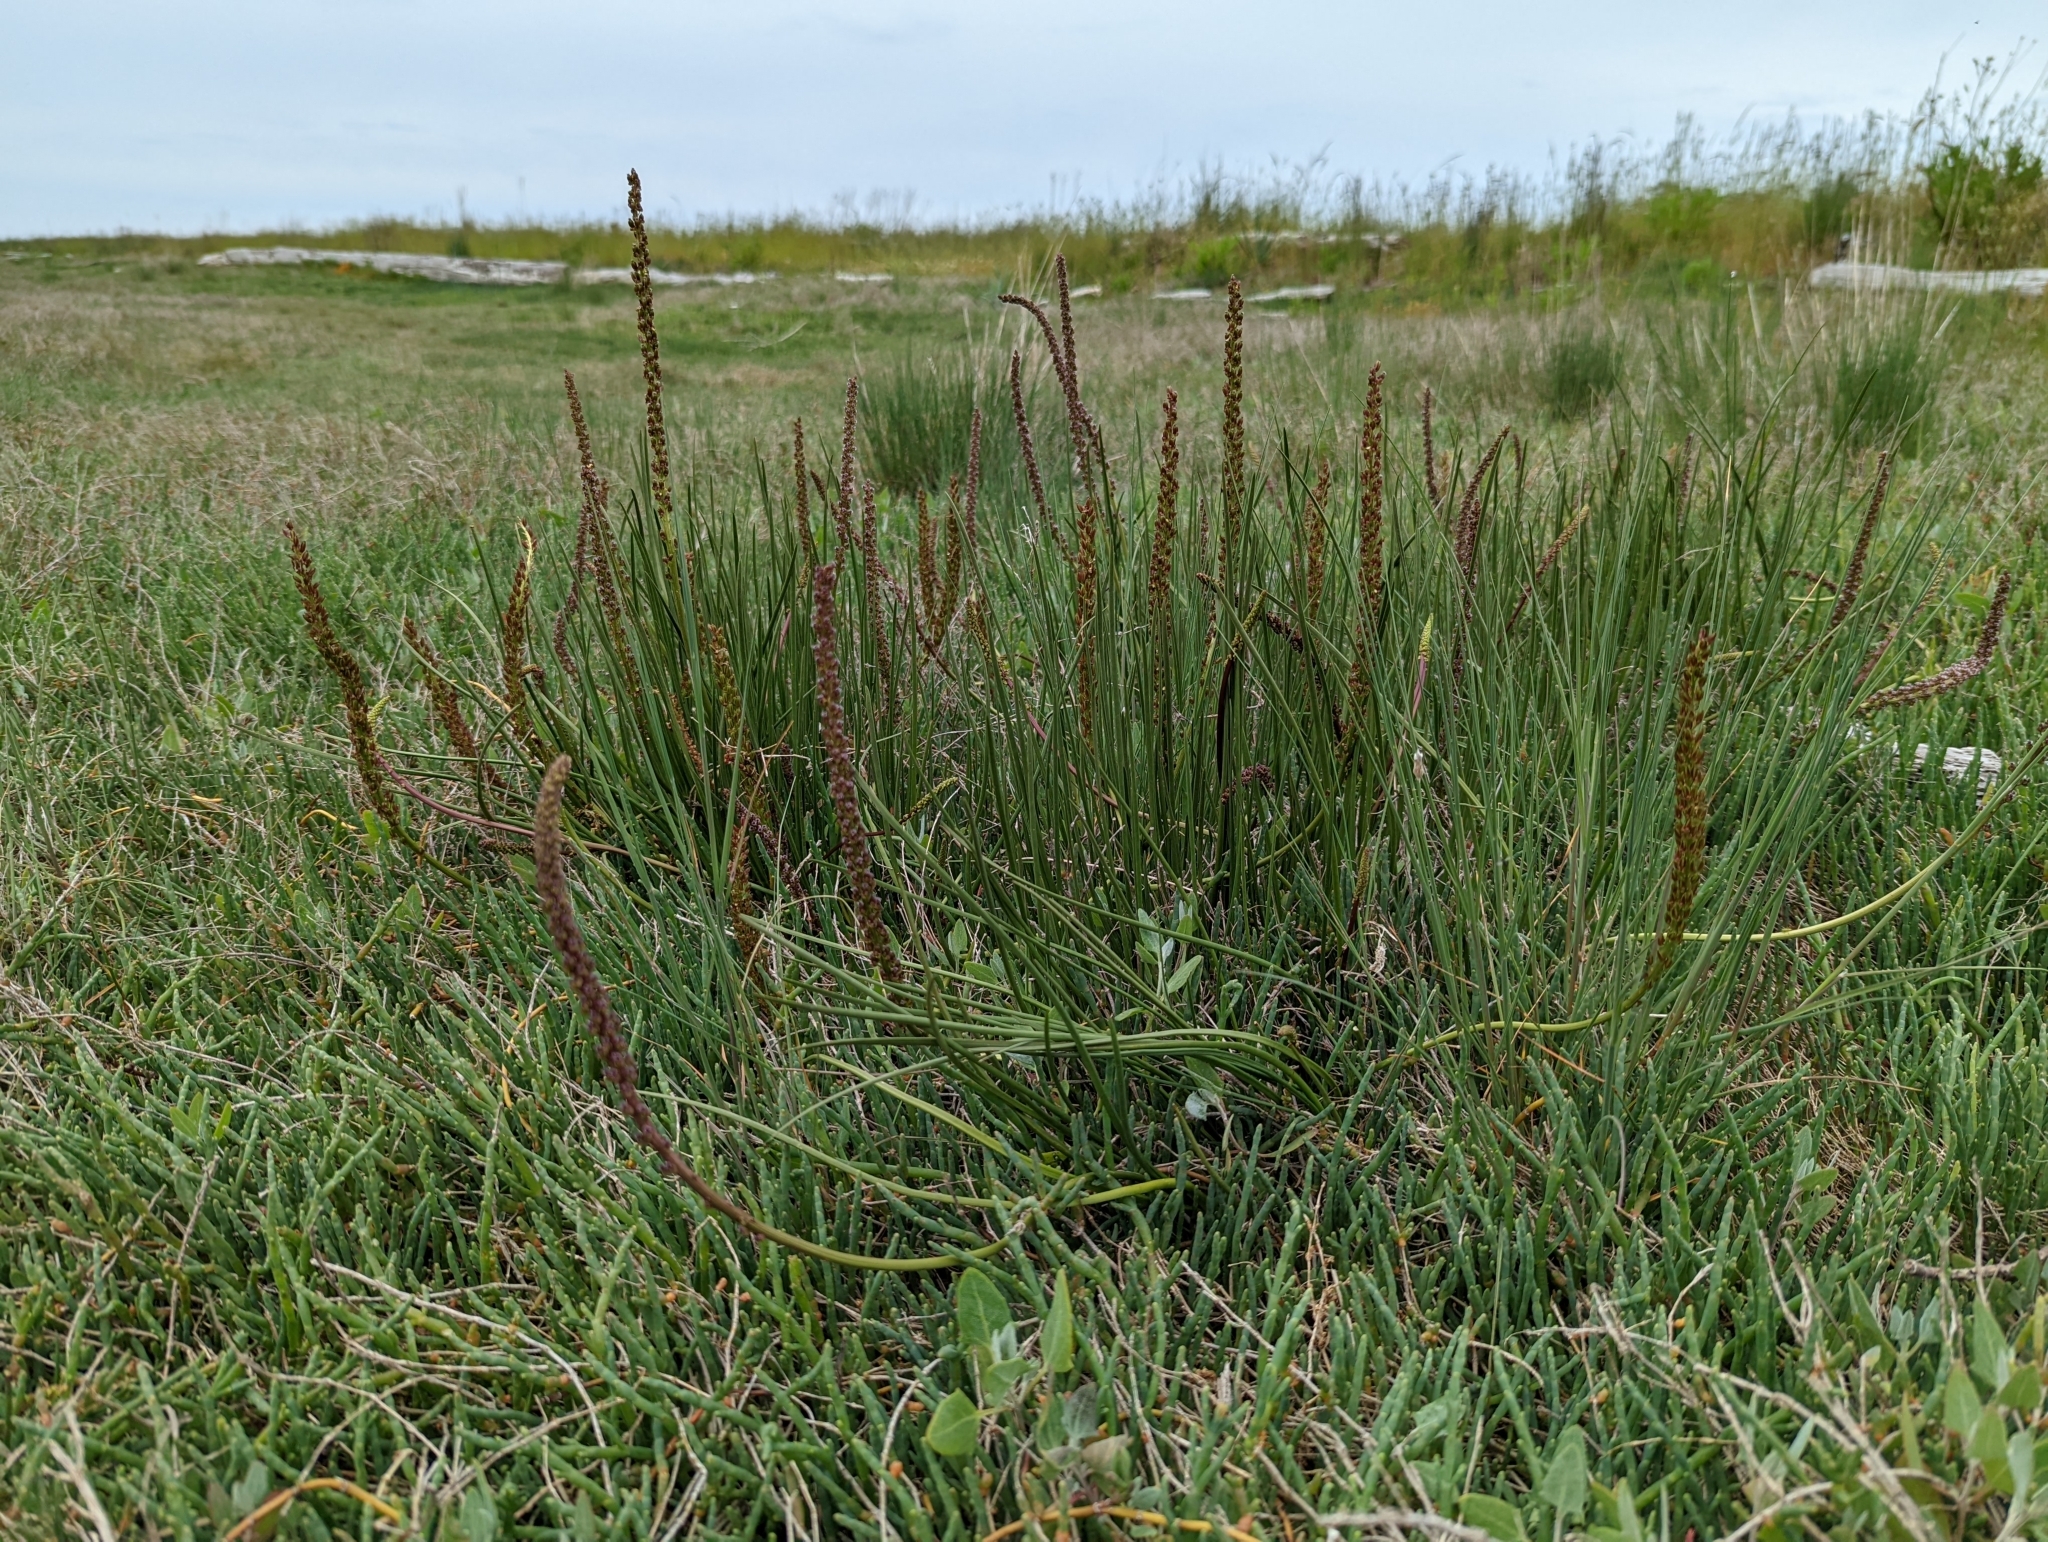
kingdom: Plantae
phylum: Tracheophyta
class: Liliopsida
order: Alismatales
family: Juncaginaceae
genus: Triglochin
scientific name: Triglochin maritima
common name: Sea arrowgrass
